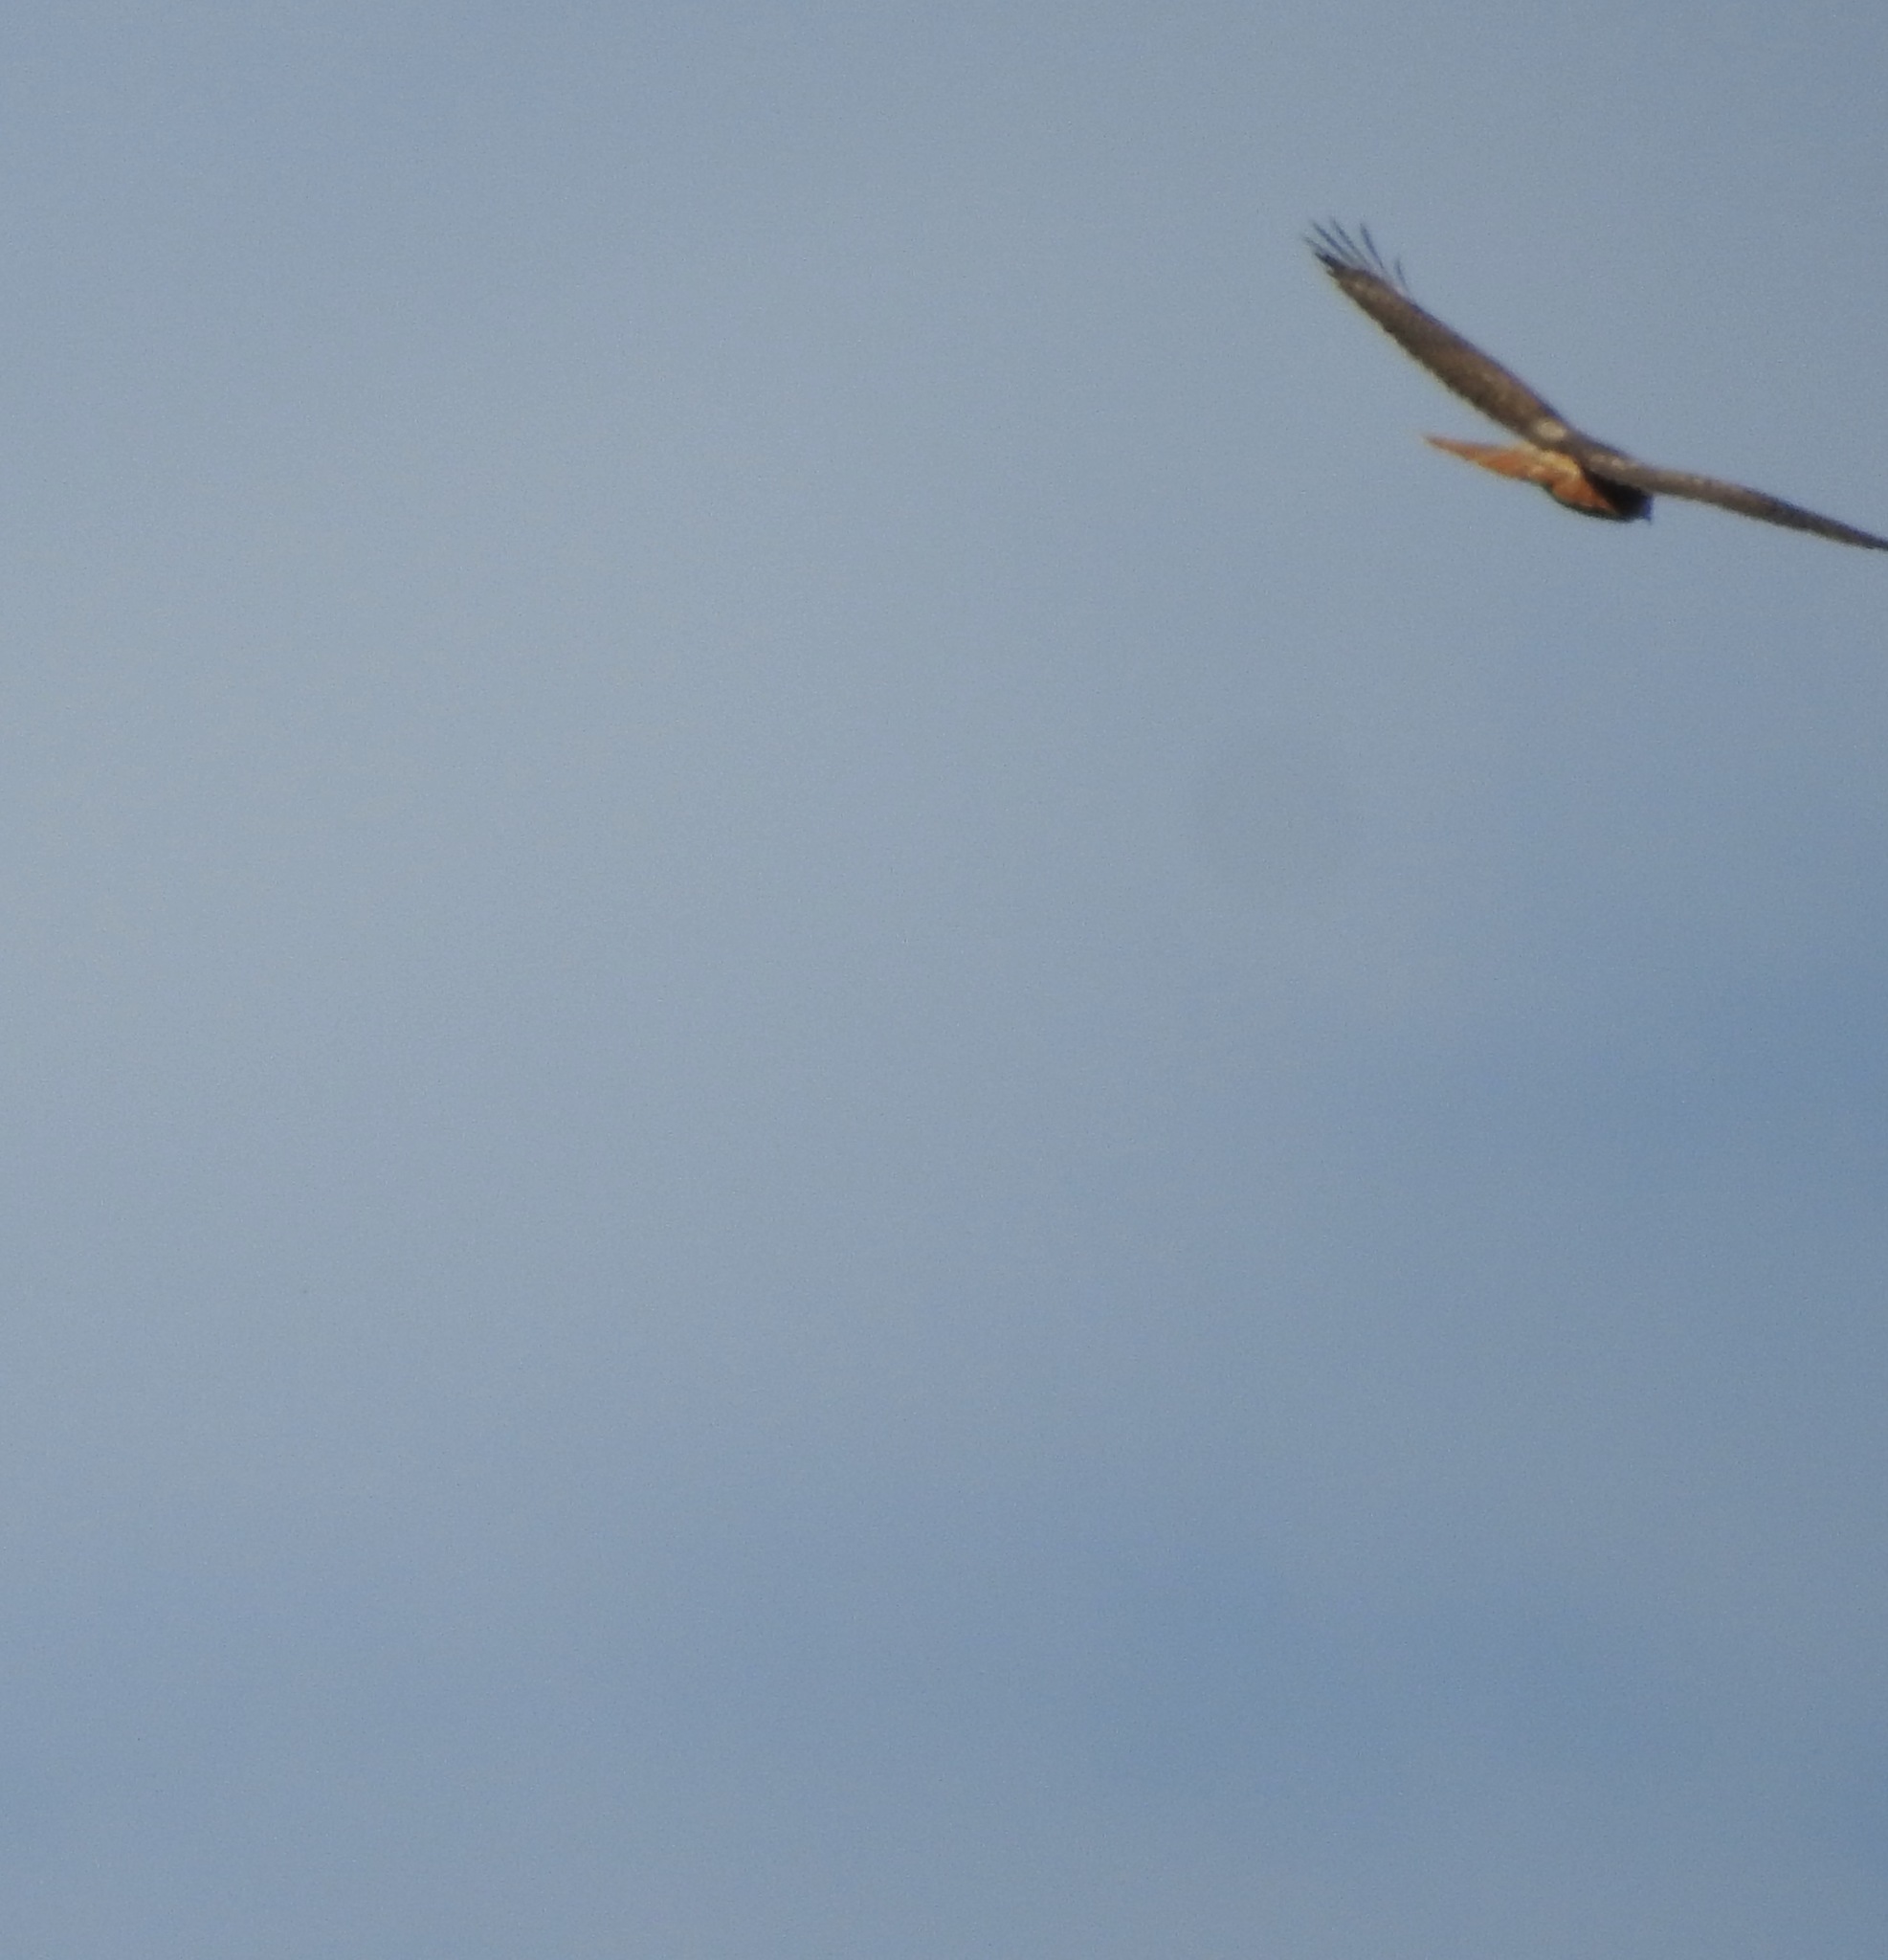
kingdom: Animalia
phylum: Chordata
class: Aves
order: Accipitriformes
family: Accipitridae
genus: Buteo
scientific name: Buteo jamaicensis
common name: Red-tailed hawk
